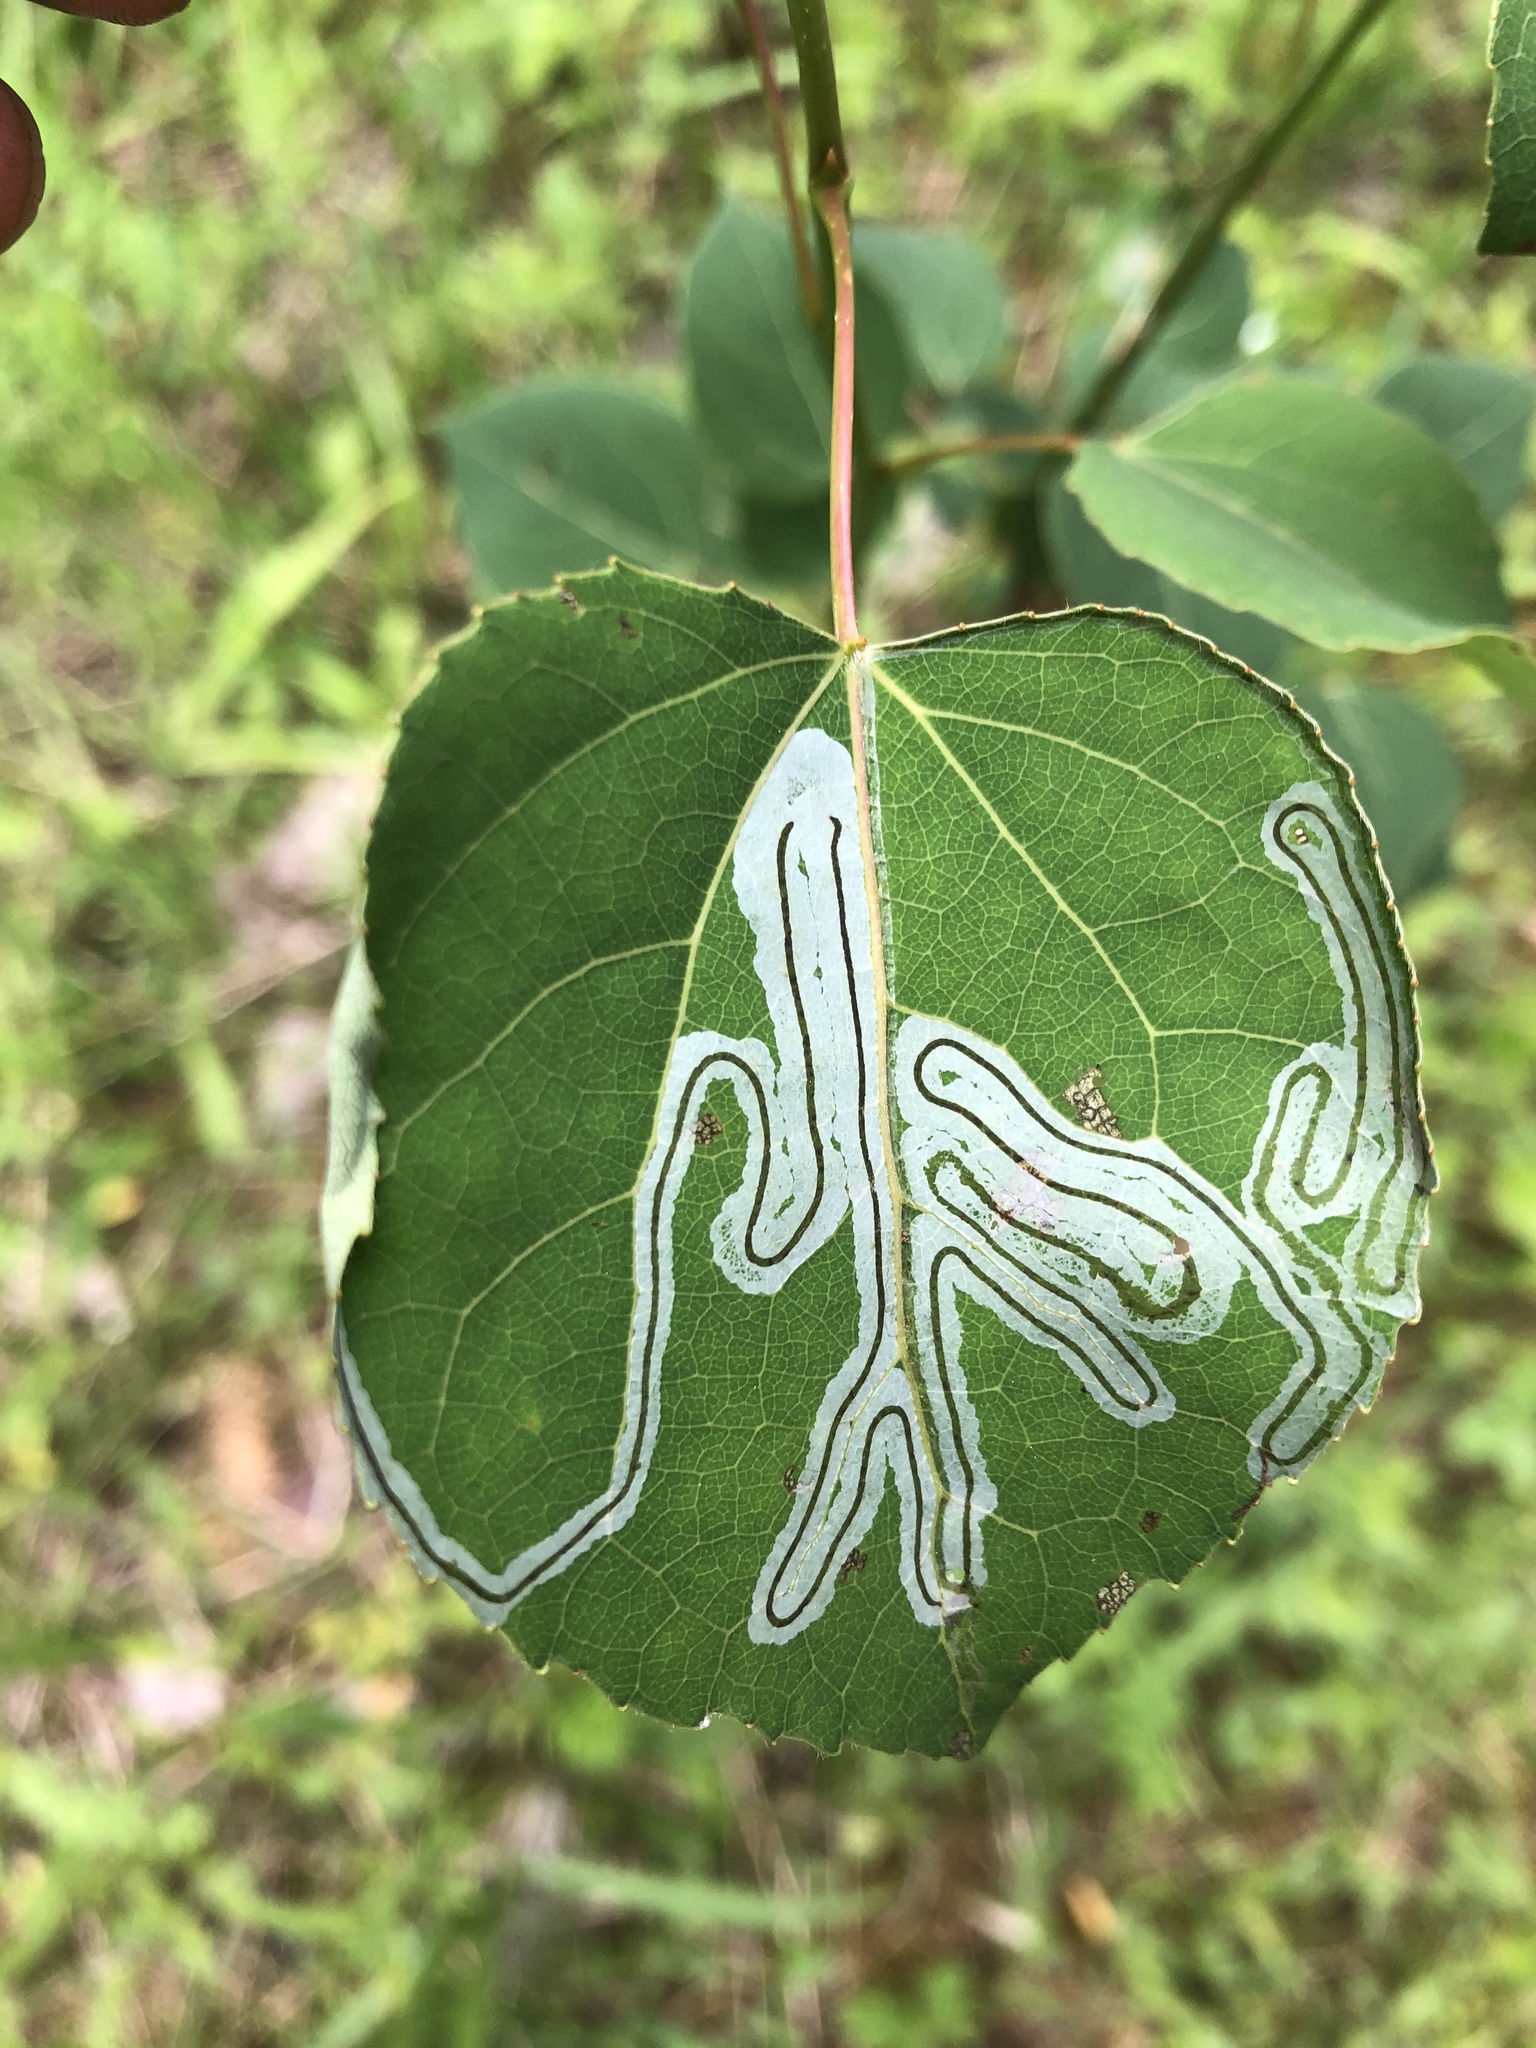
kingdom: Animalia
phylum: Arthropoda
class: Insecta
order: Lepidoptera
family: Gracillariidae
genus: Phyllocnistis
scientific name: Phyllocnistis populiella
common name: Aspen serpentine leafminer moth
